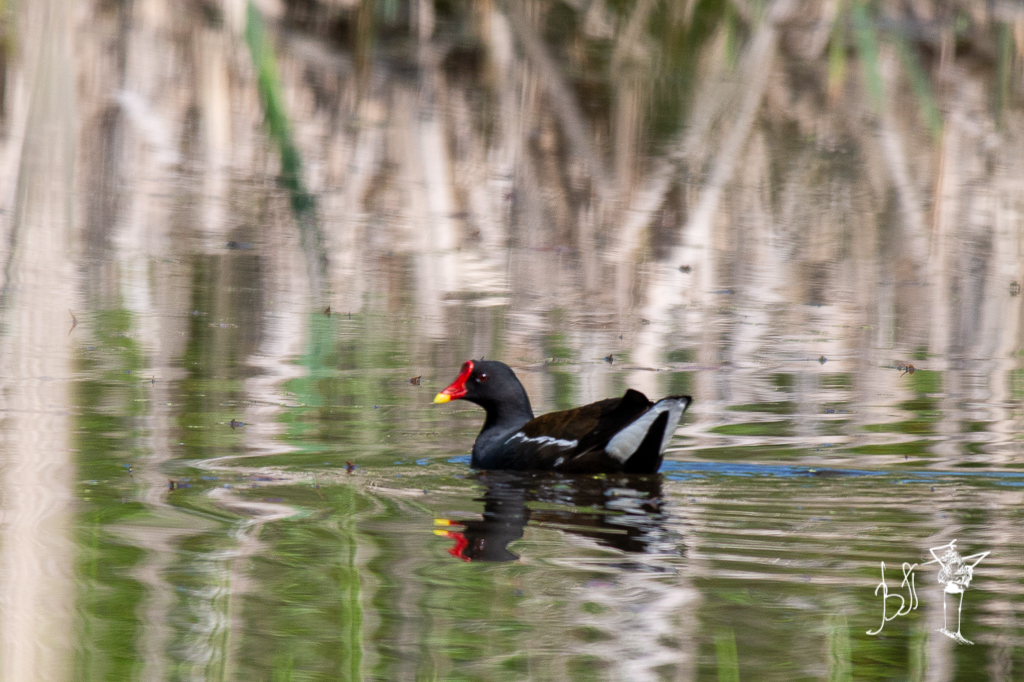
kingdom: Animalia
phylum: Chordata
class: Aves
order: Gruiformes
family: Rallidae
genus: Gallinula
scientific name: Gallinula chloropus
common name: Common moorhen
